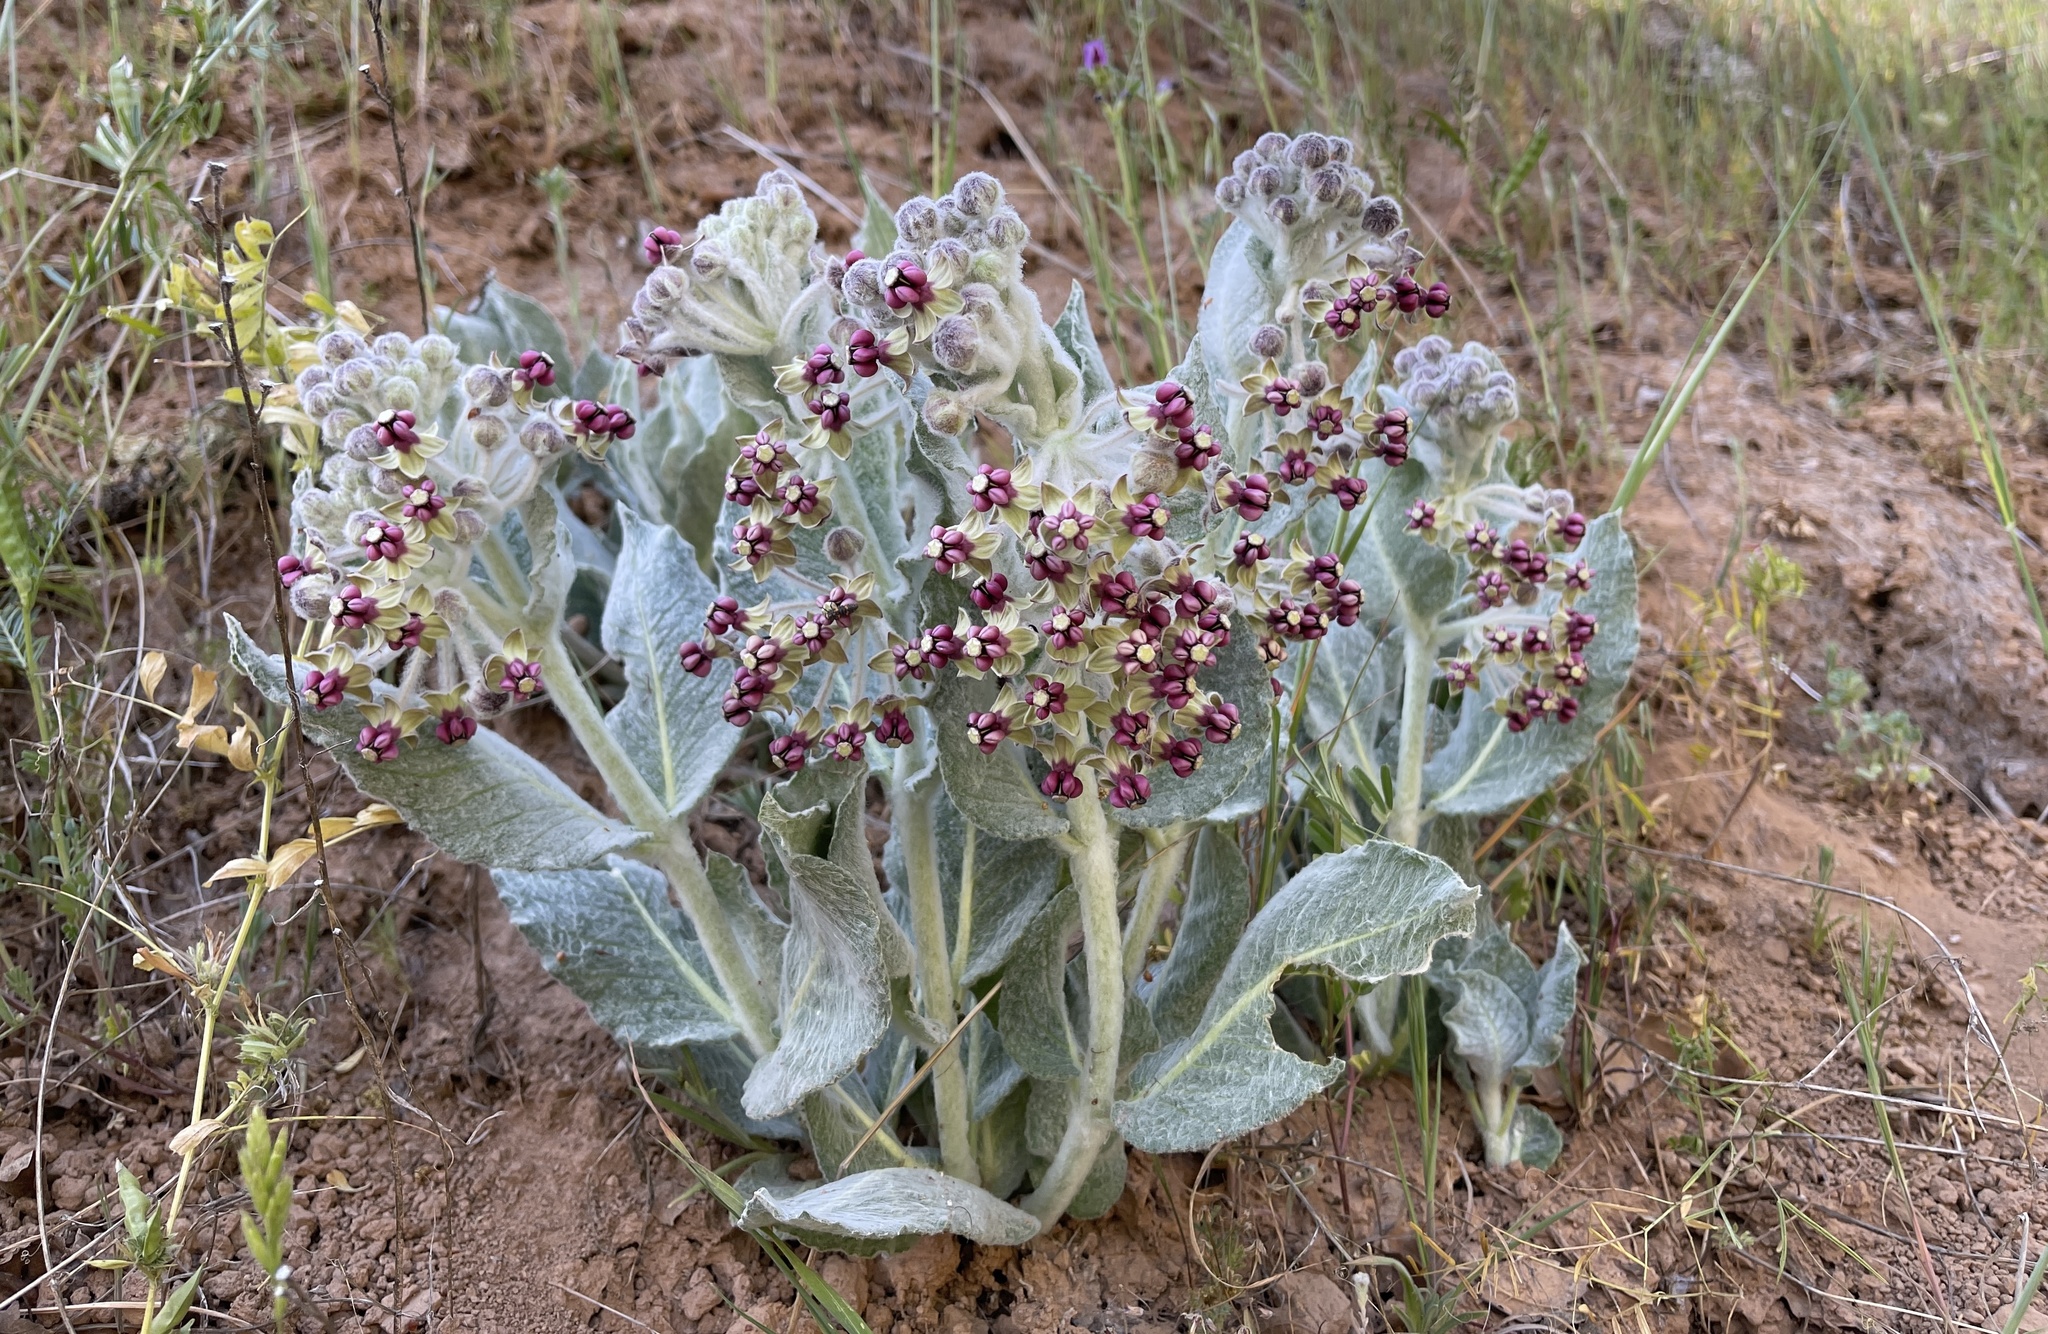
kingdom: Plantae
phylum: Tracheophyta
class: Magnoliopsida
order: Gentianales
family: Apocynaceae
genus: Asclepias
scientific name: Asclepias californica
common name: California milkweed
